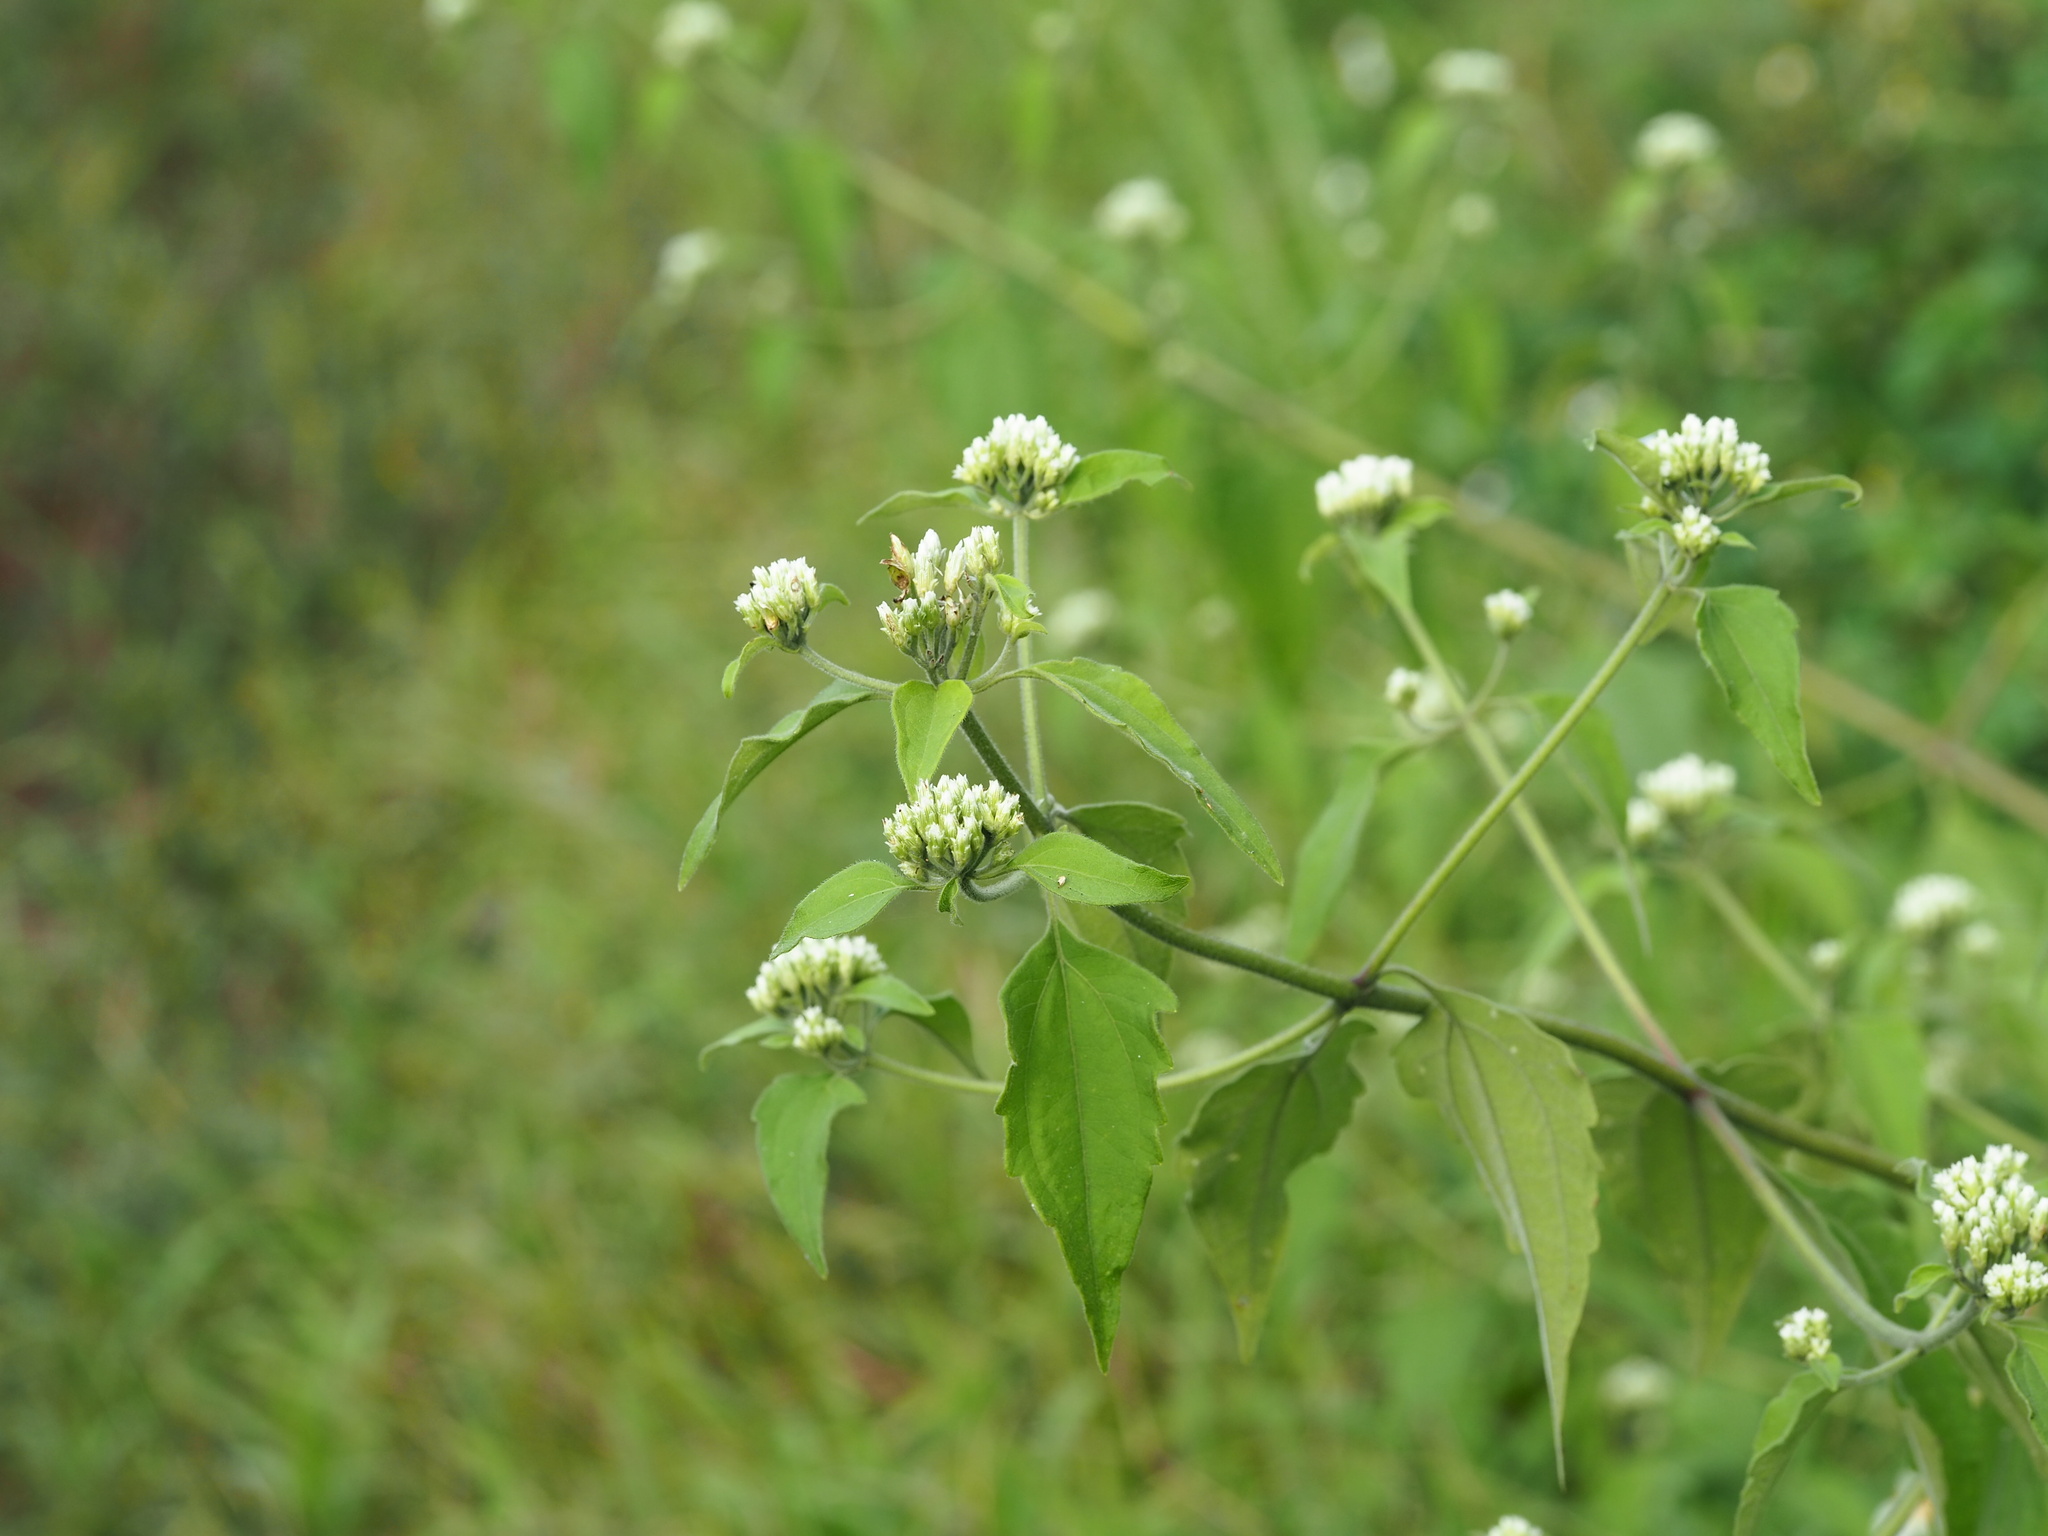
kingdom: Plantae
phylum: Tracheophyta
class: Magnoliopsida
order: Asterales
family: Asteraceae
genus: Chromolaena
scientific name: Chromolaena odorata
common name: Siamweed
